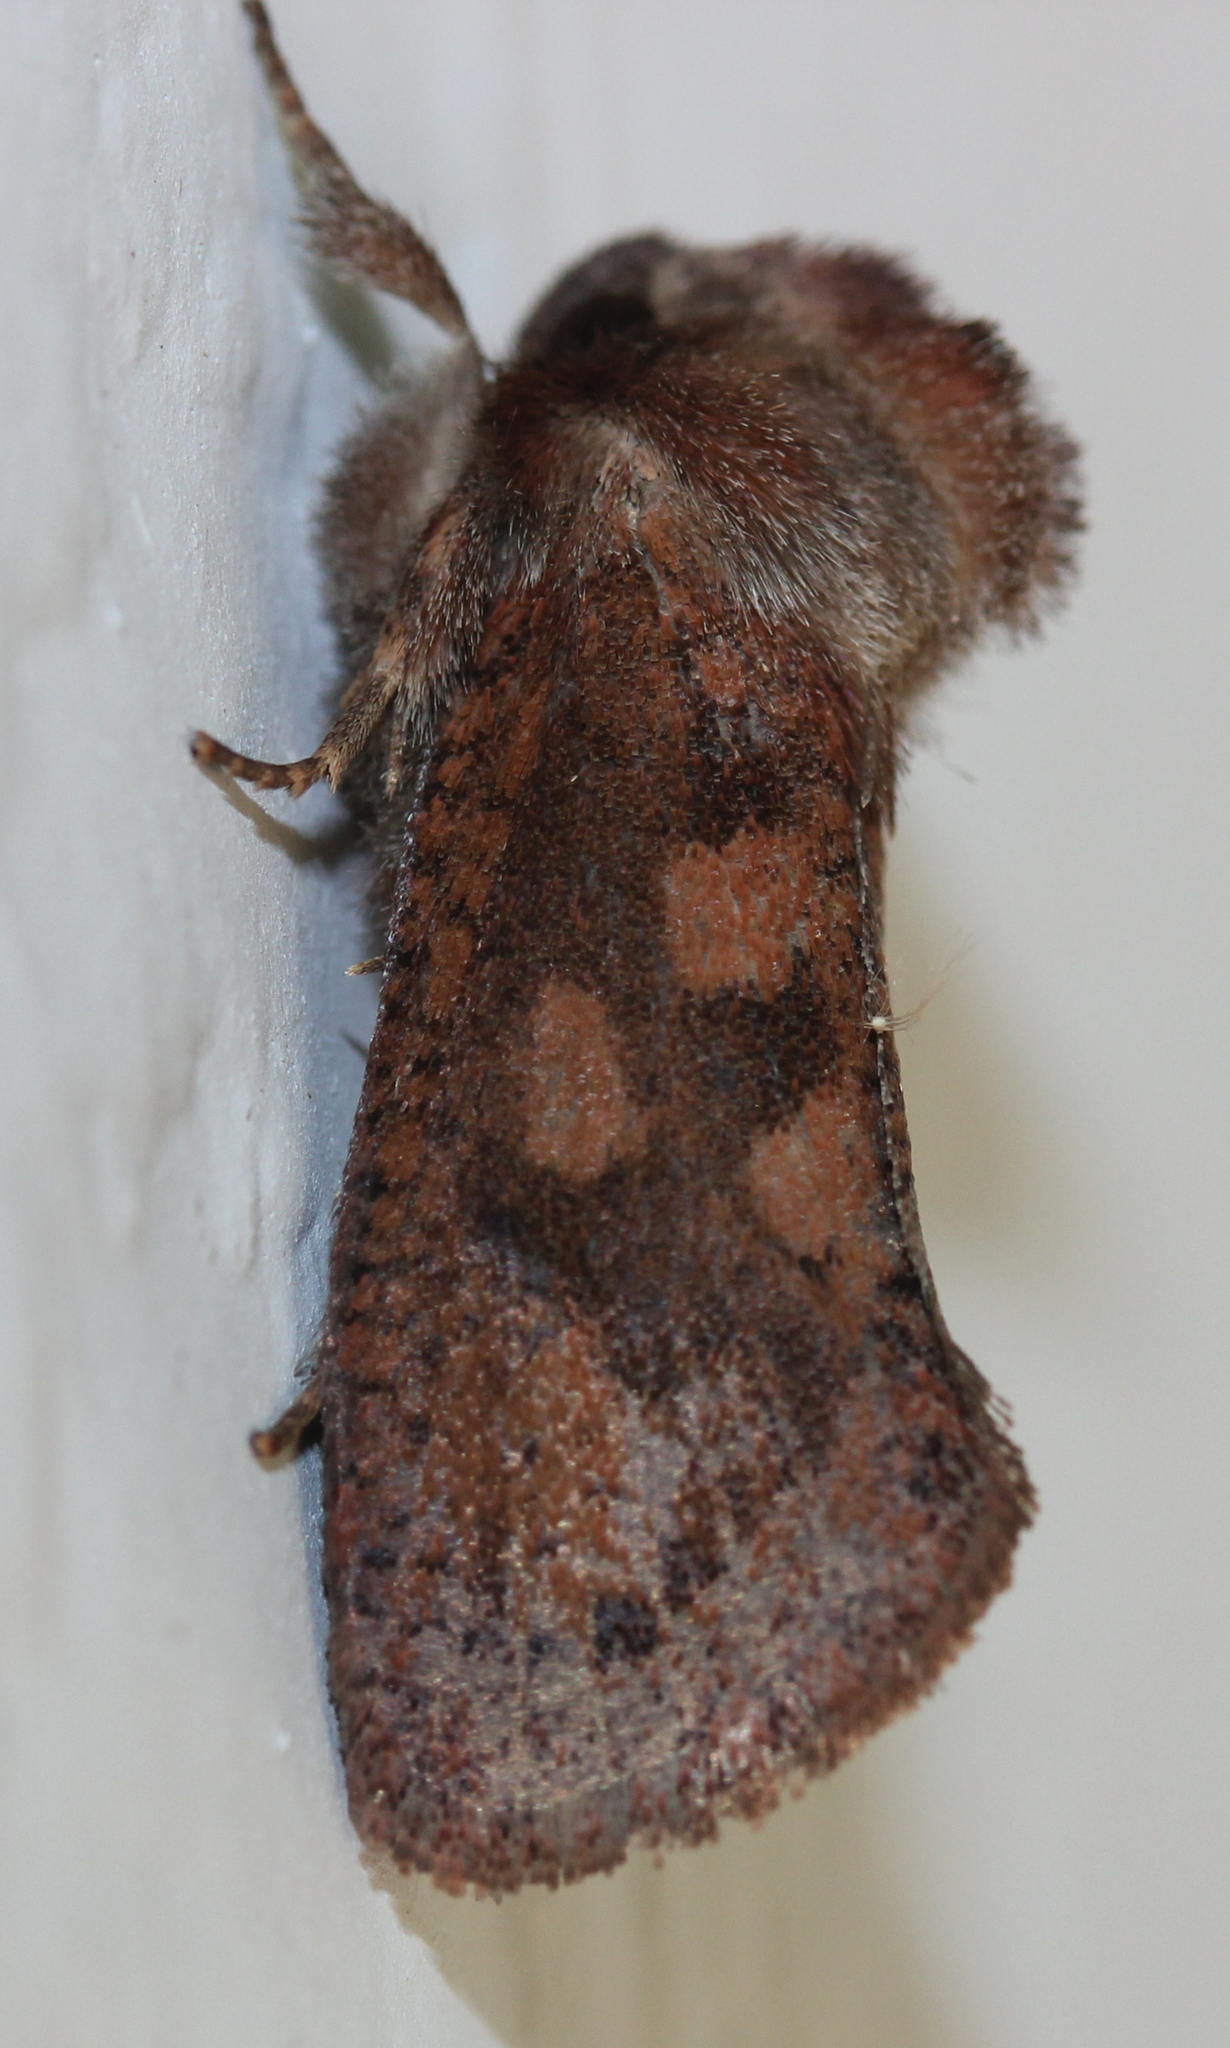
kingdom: Animalia
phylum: Arthropoda
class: Insecta
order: Lepidoptera
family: Tineidae
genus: Acrolophus
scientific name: Acrolophus plumifrontella
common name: Eastern grass tubeworm moth
